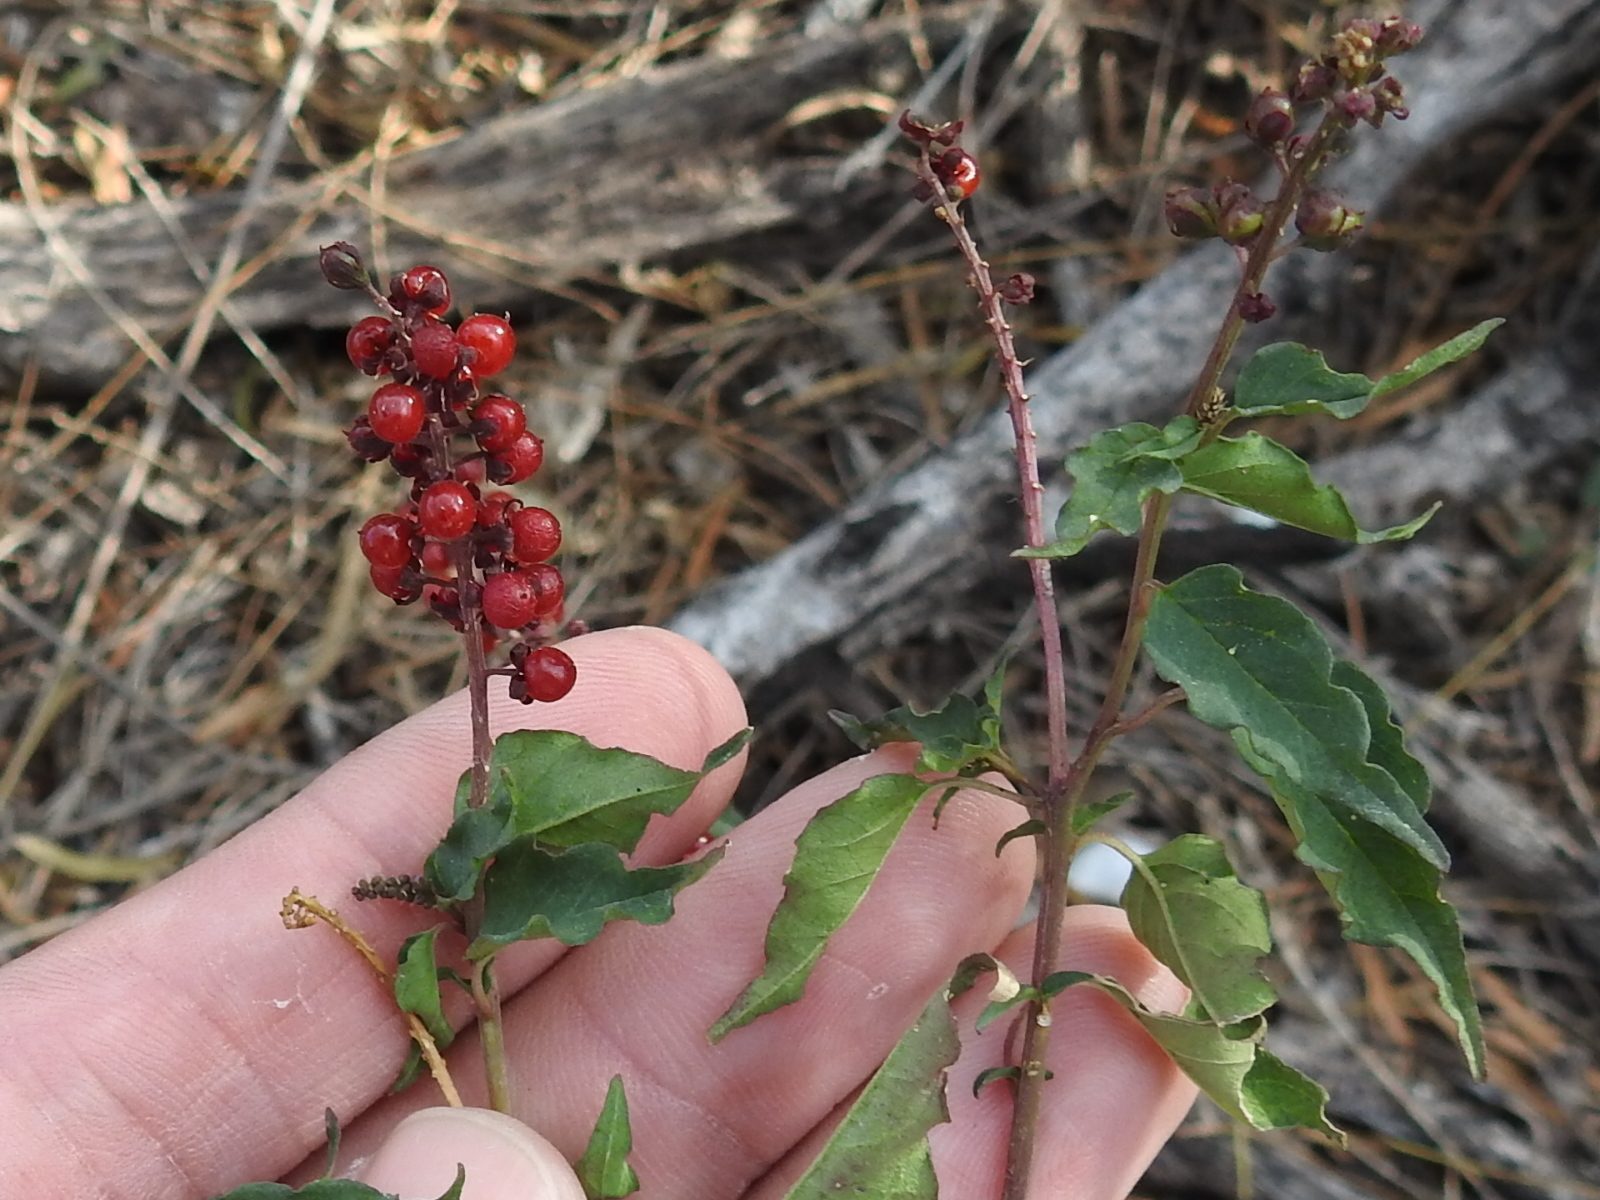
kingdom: Plantae
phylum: Tracheophyta
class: Magnoliopsida
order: Caryophyllales
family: Phytolaccaceae
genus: Rivina
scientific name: Rivina humilis
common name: Rougeplant
